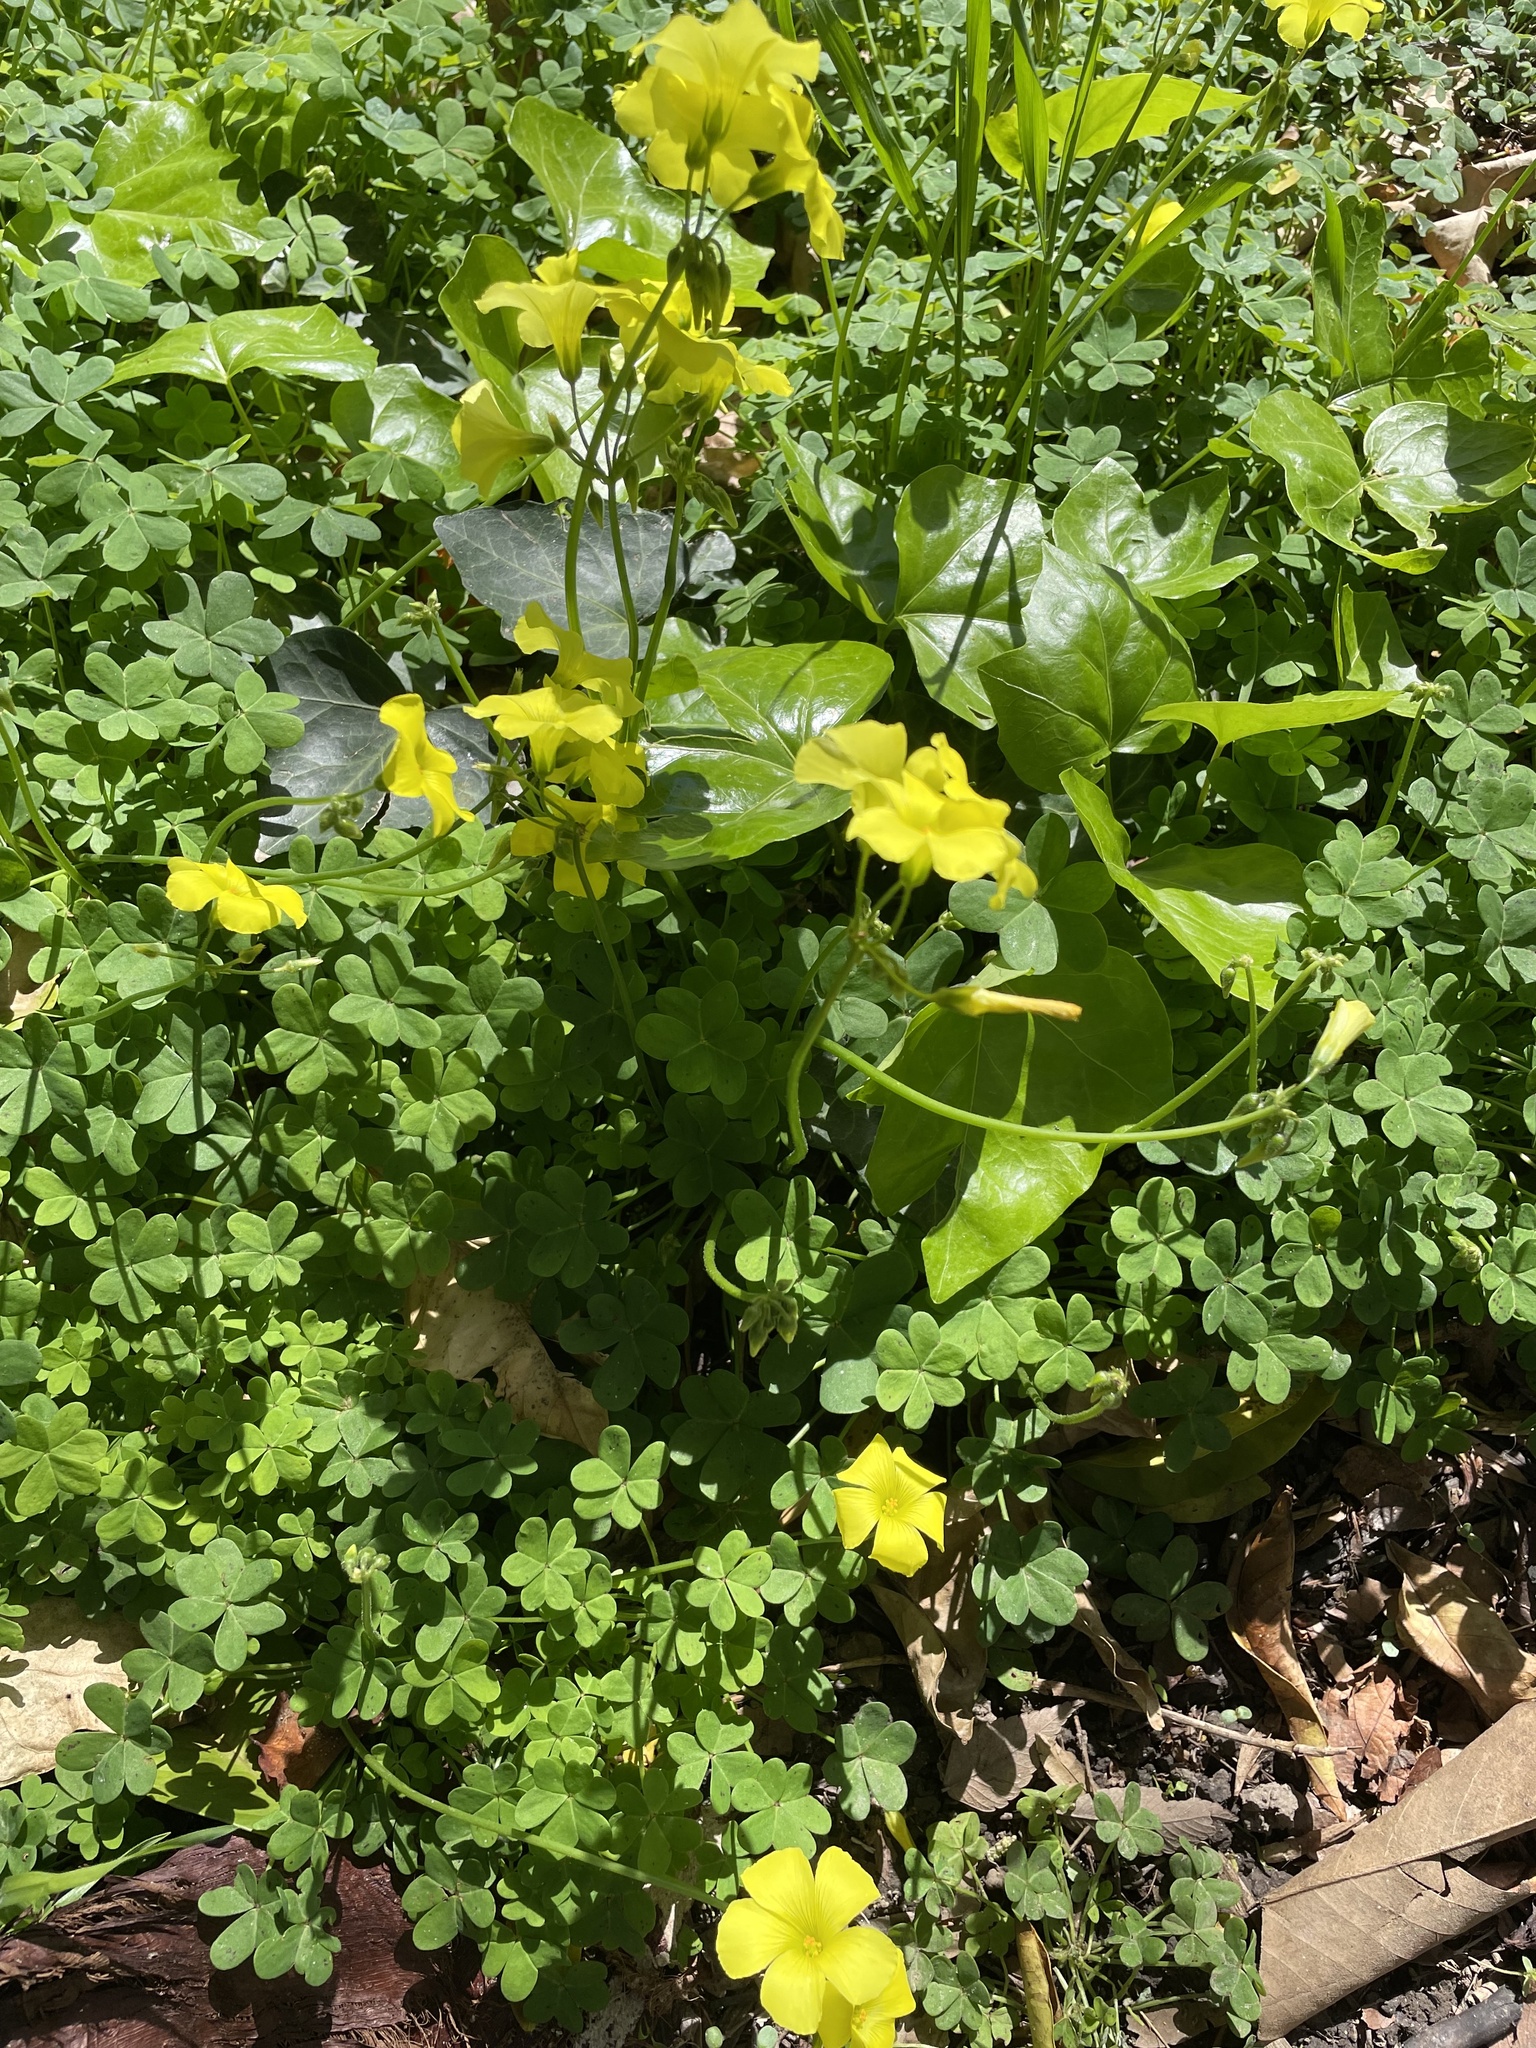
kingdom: Plantae
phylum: Tracheophyta
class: Magnoliopsida
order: Oxalidales
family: Oxalidaceae
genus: Oxalis
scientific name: Oxalis pes-caprae
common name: Bermuda-buttercup
